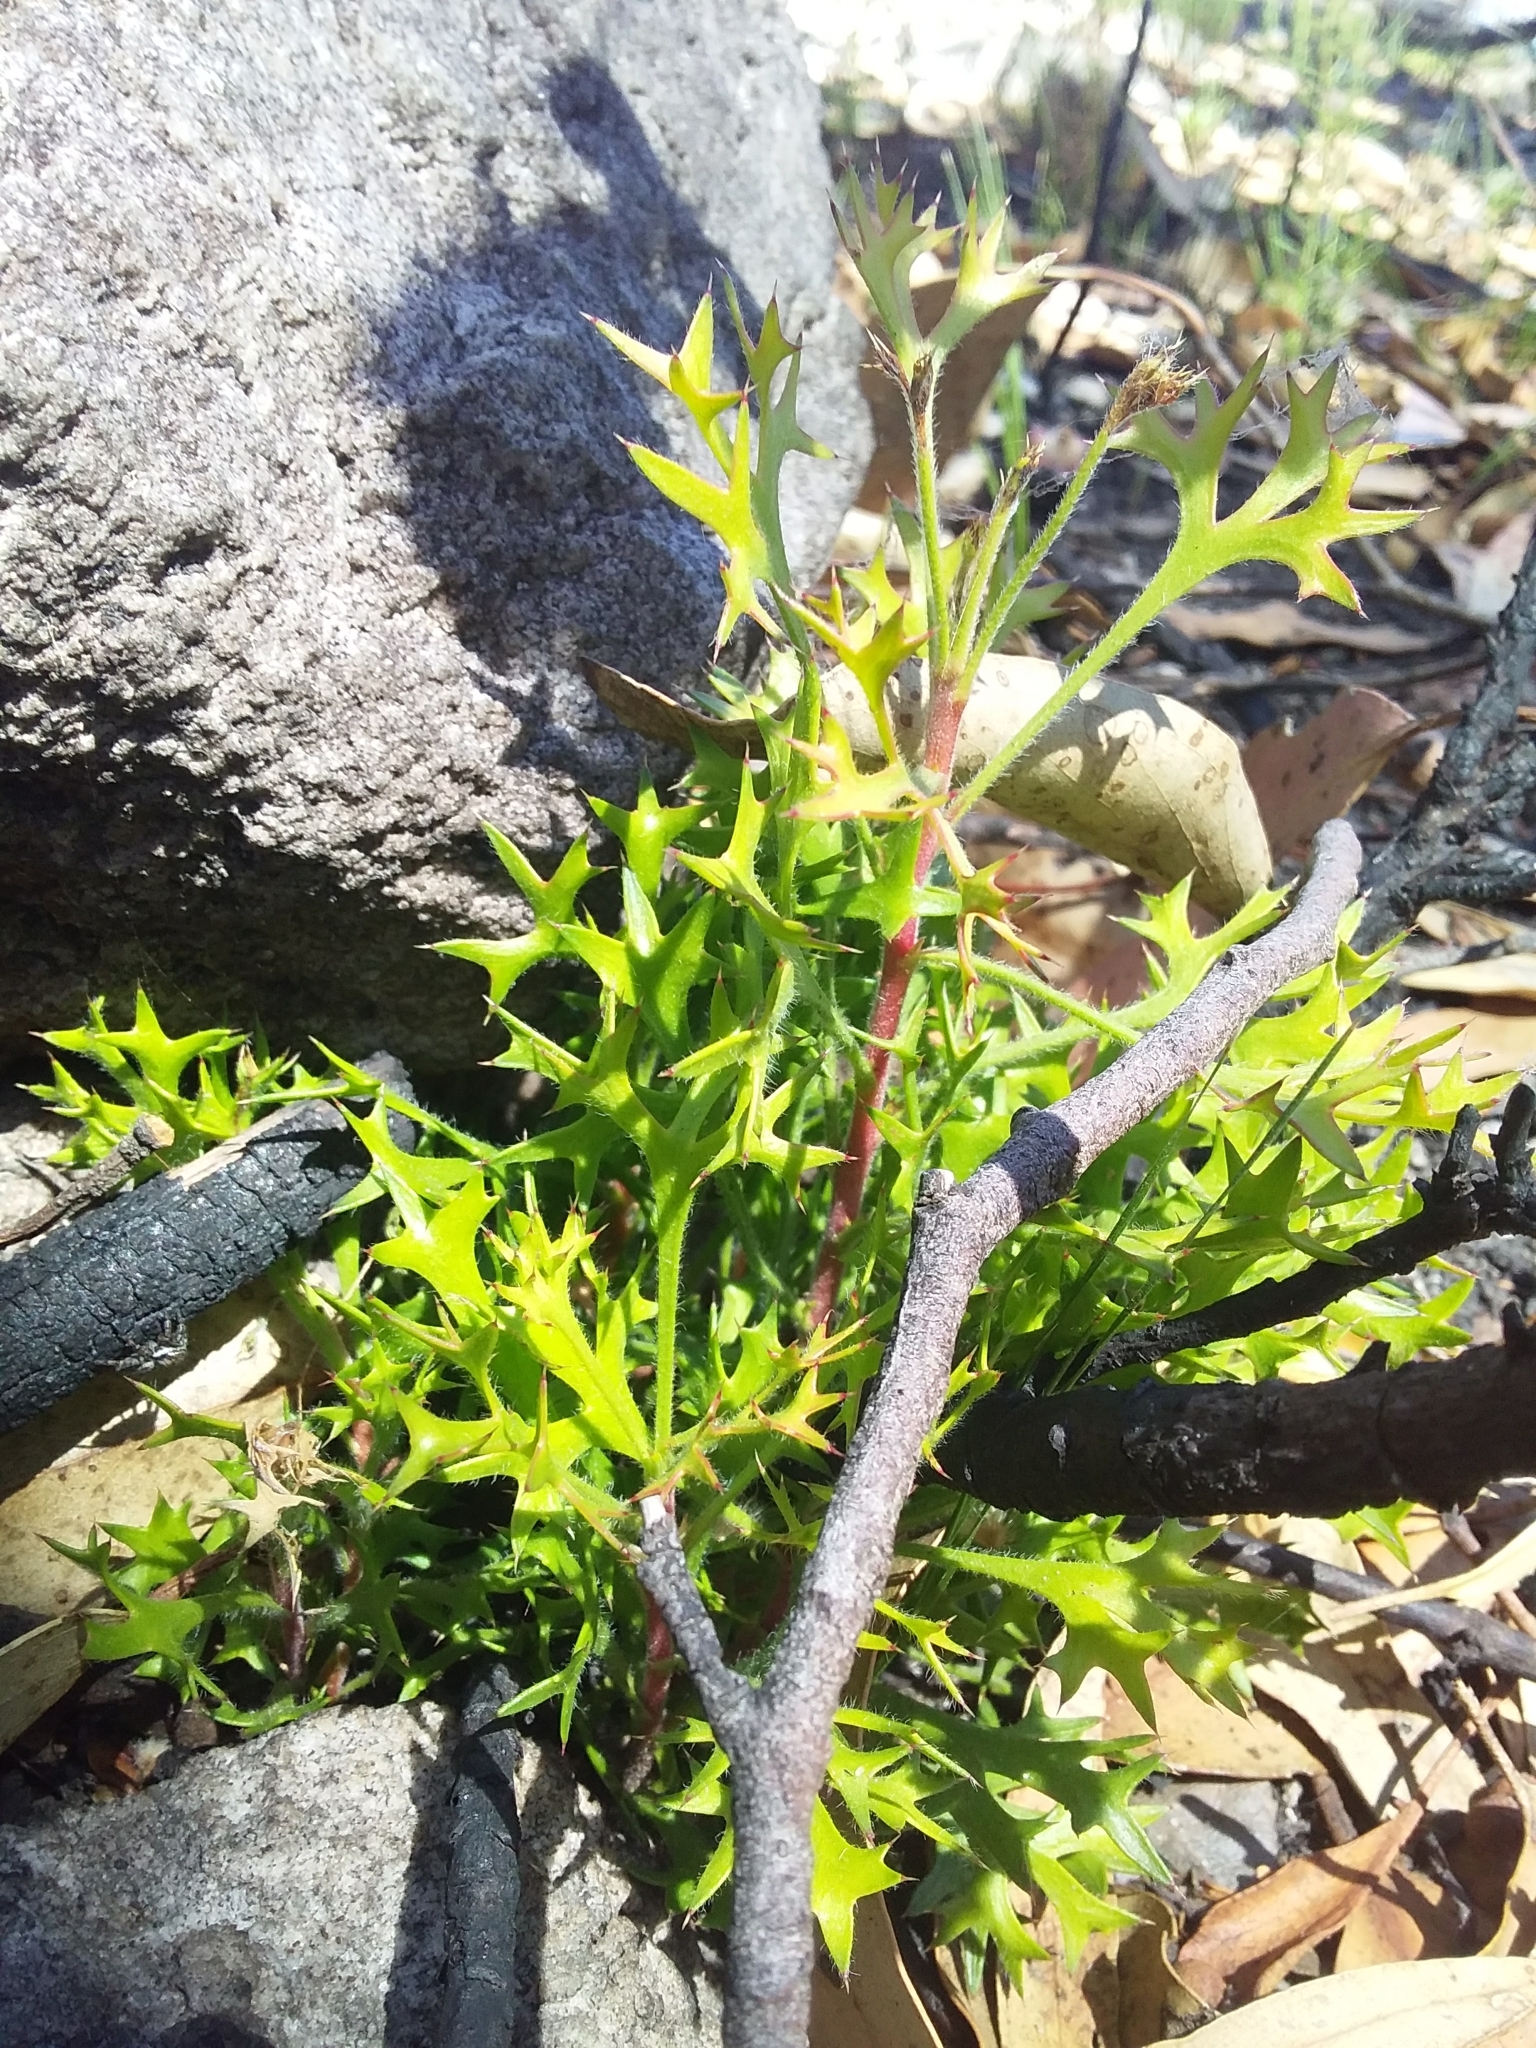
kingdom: Plantae
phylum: Tracheophyta
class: Magnoliopsida
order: Proteales
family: Proteaceae
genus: Isopogon
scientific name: Isopogon ceratophyllus
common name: Horny cone-bush
